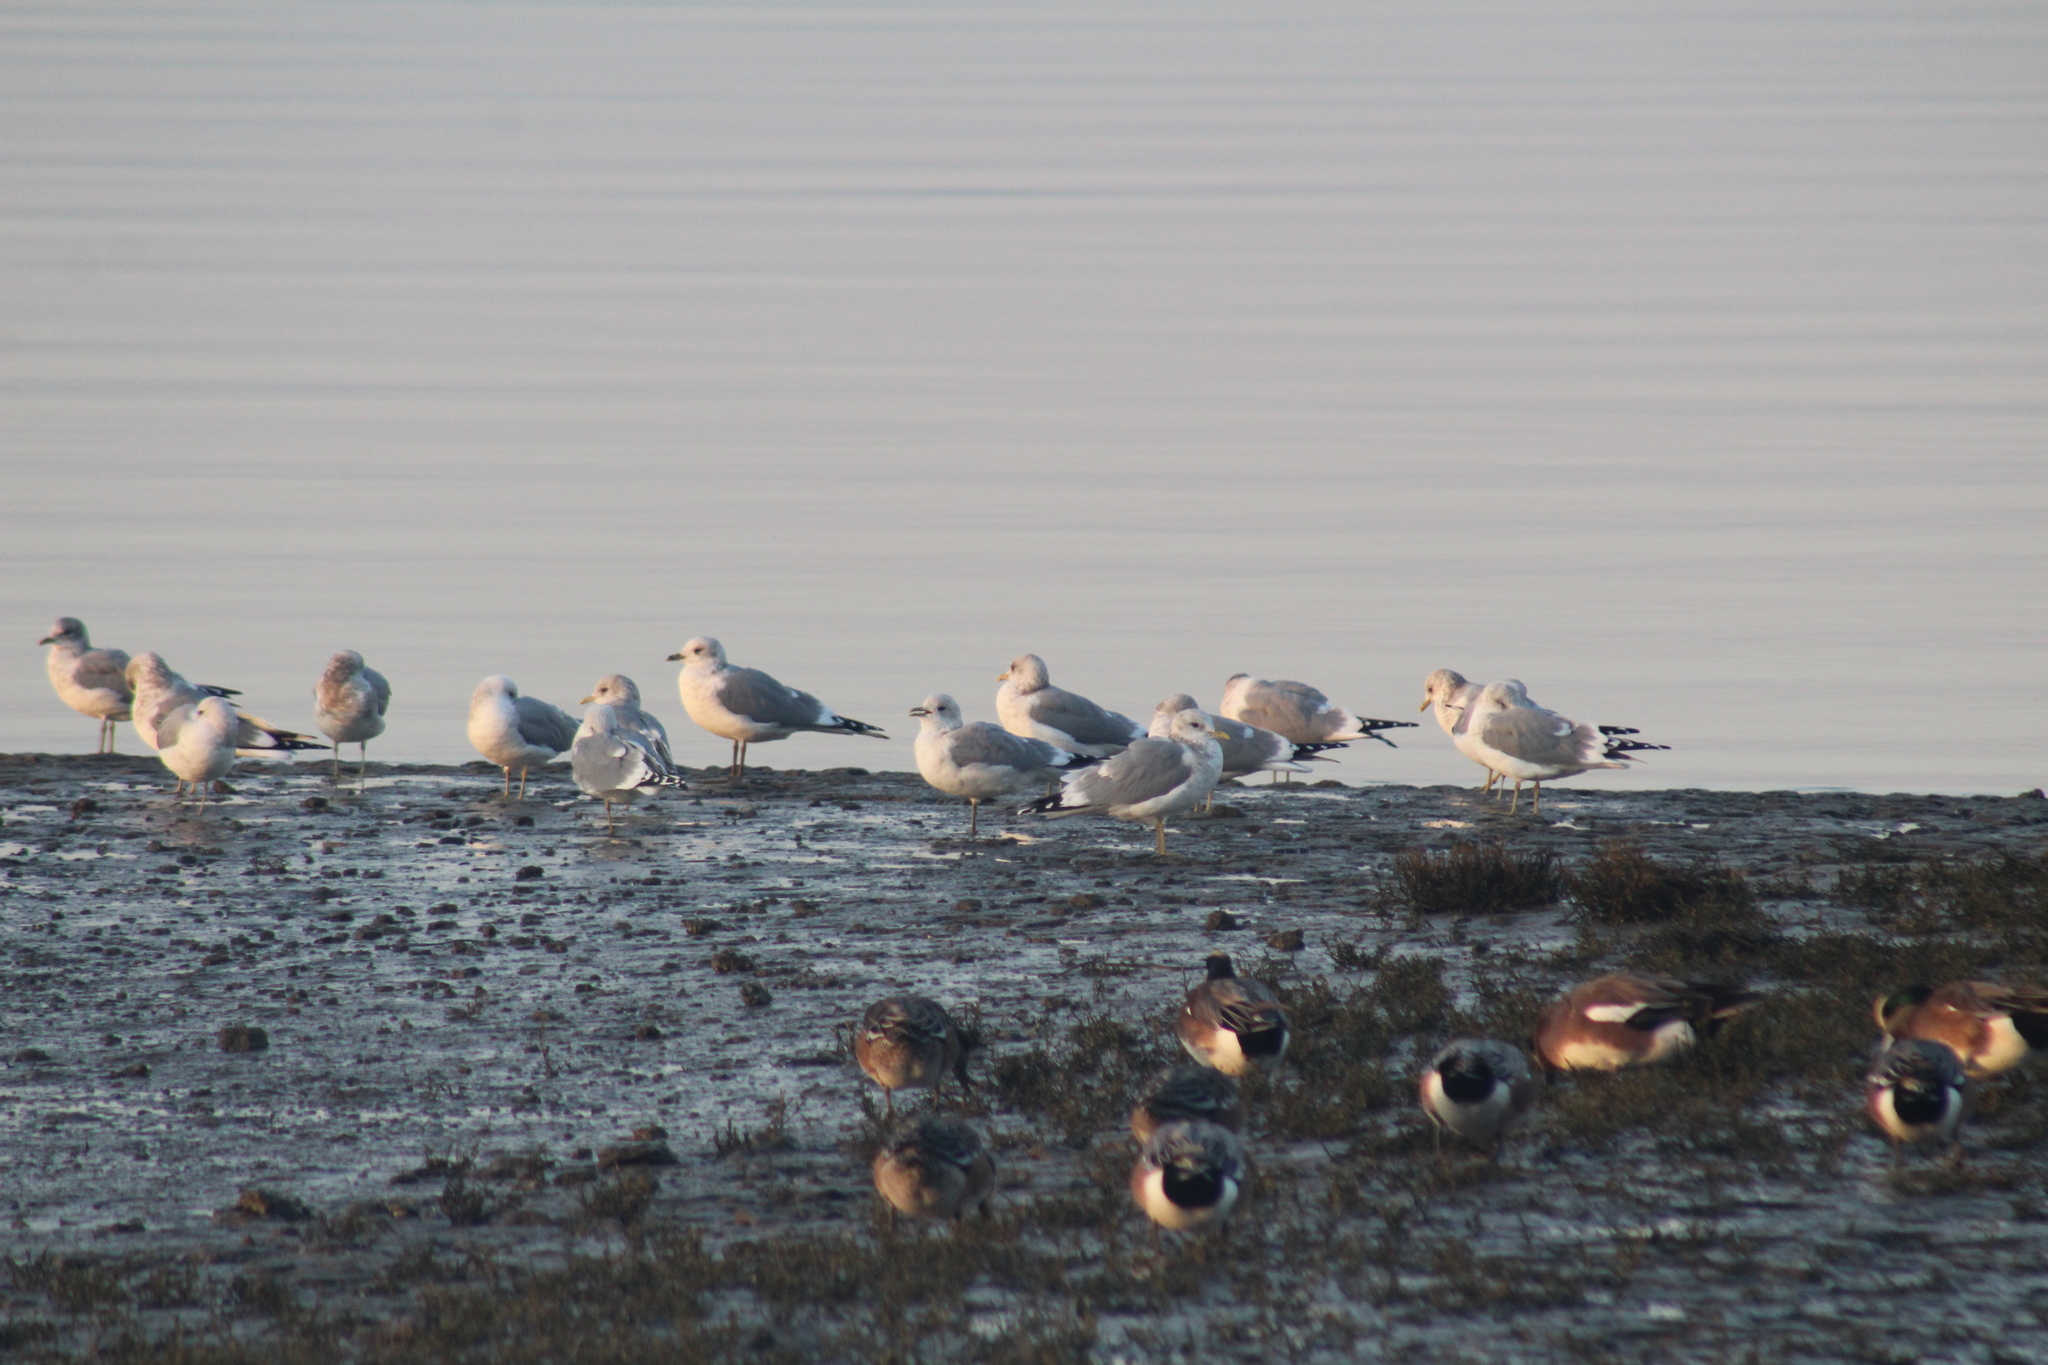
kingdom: Animalia
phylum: Chordata
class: Aves
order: Charadriiformes
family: Laridae
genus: Larus
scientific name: Larus brachyrhynchus
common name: Short-billed gull
